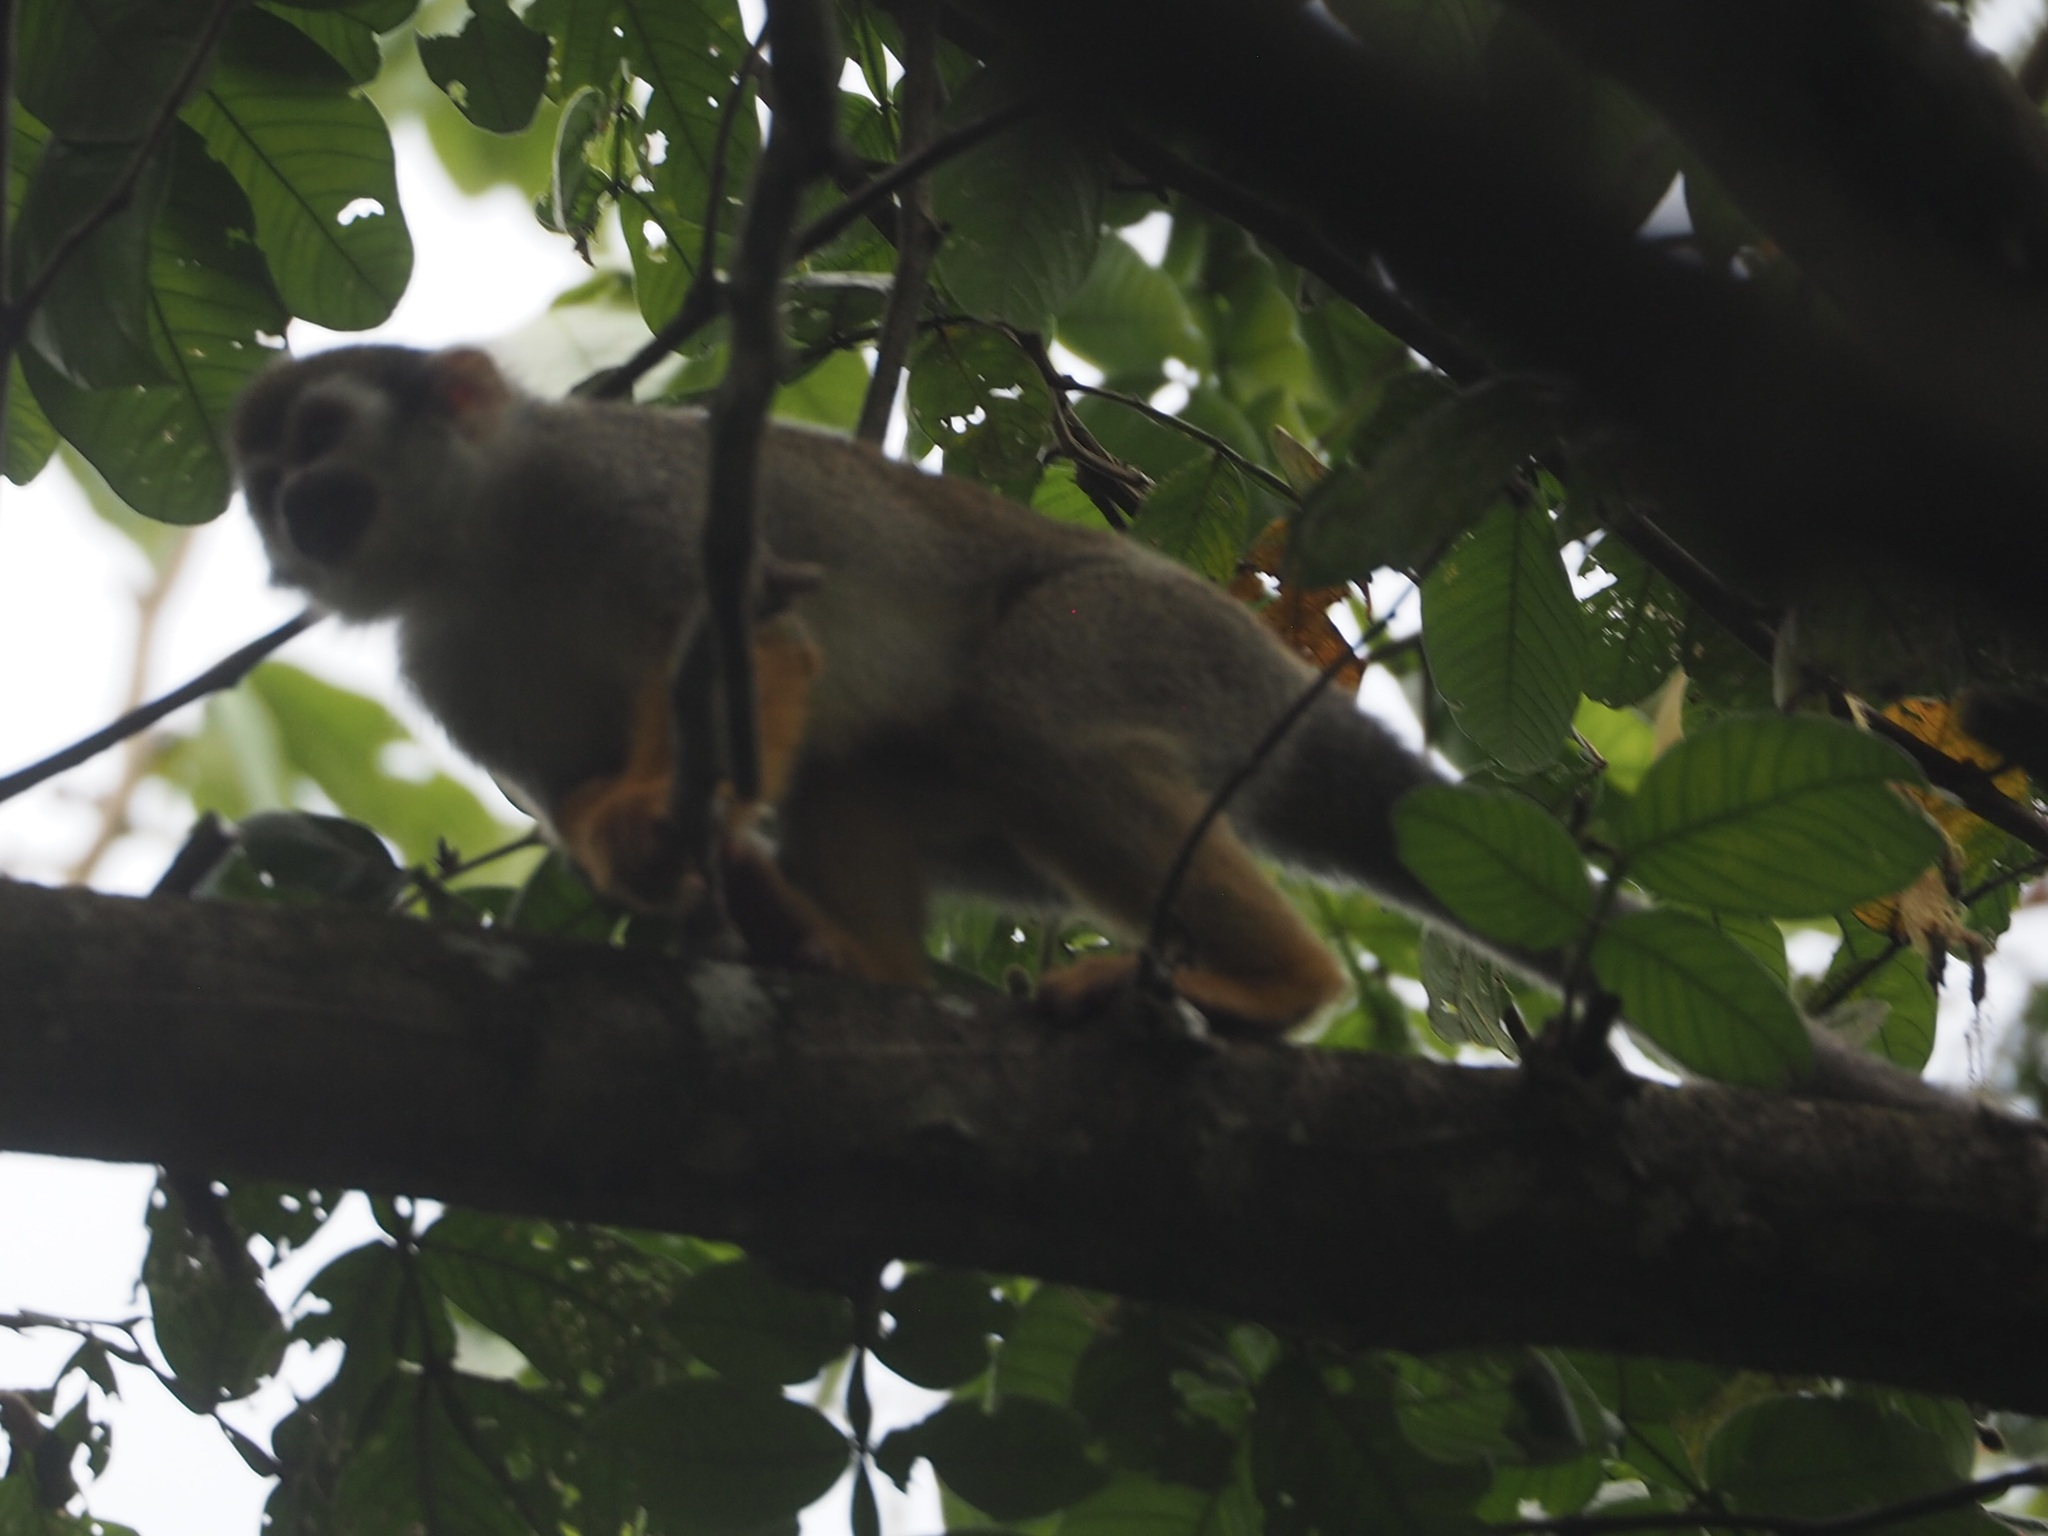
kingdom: Animalia
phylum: Chordata
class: Mammalia
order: Primates
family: Cebidae
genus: Saimiri
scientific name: Saimiri sciureus
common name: Common squirrel monkey
